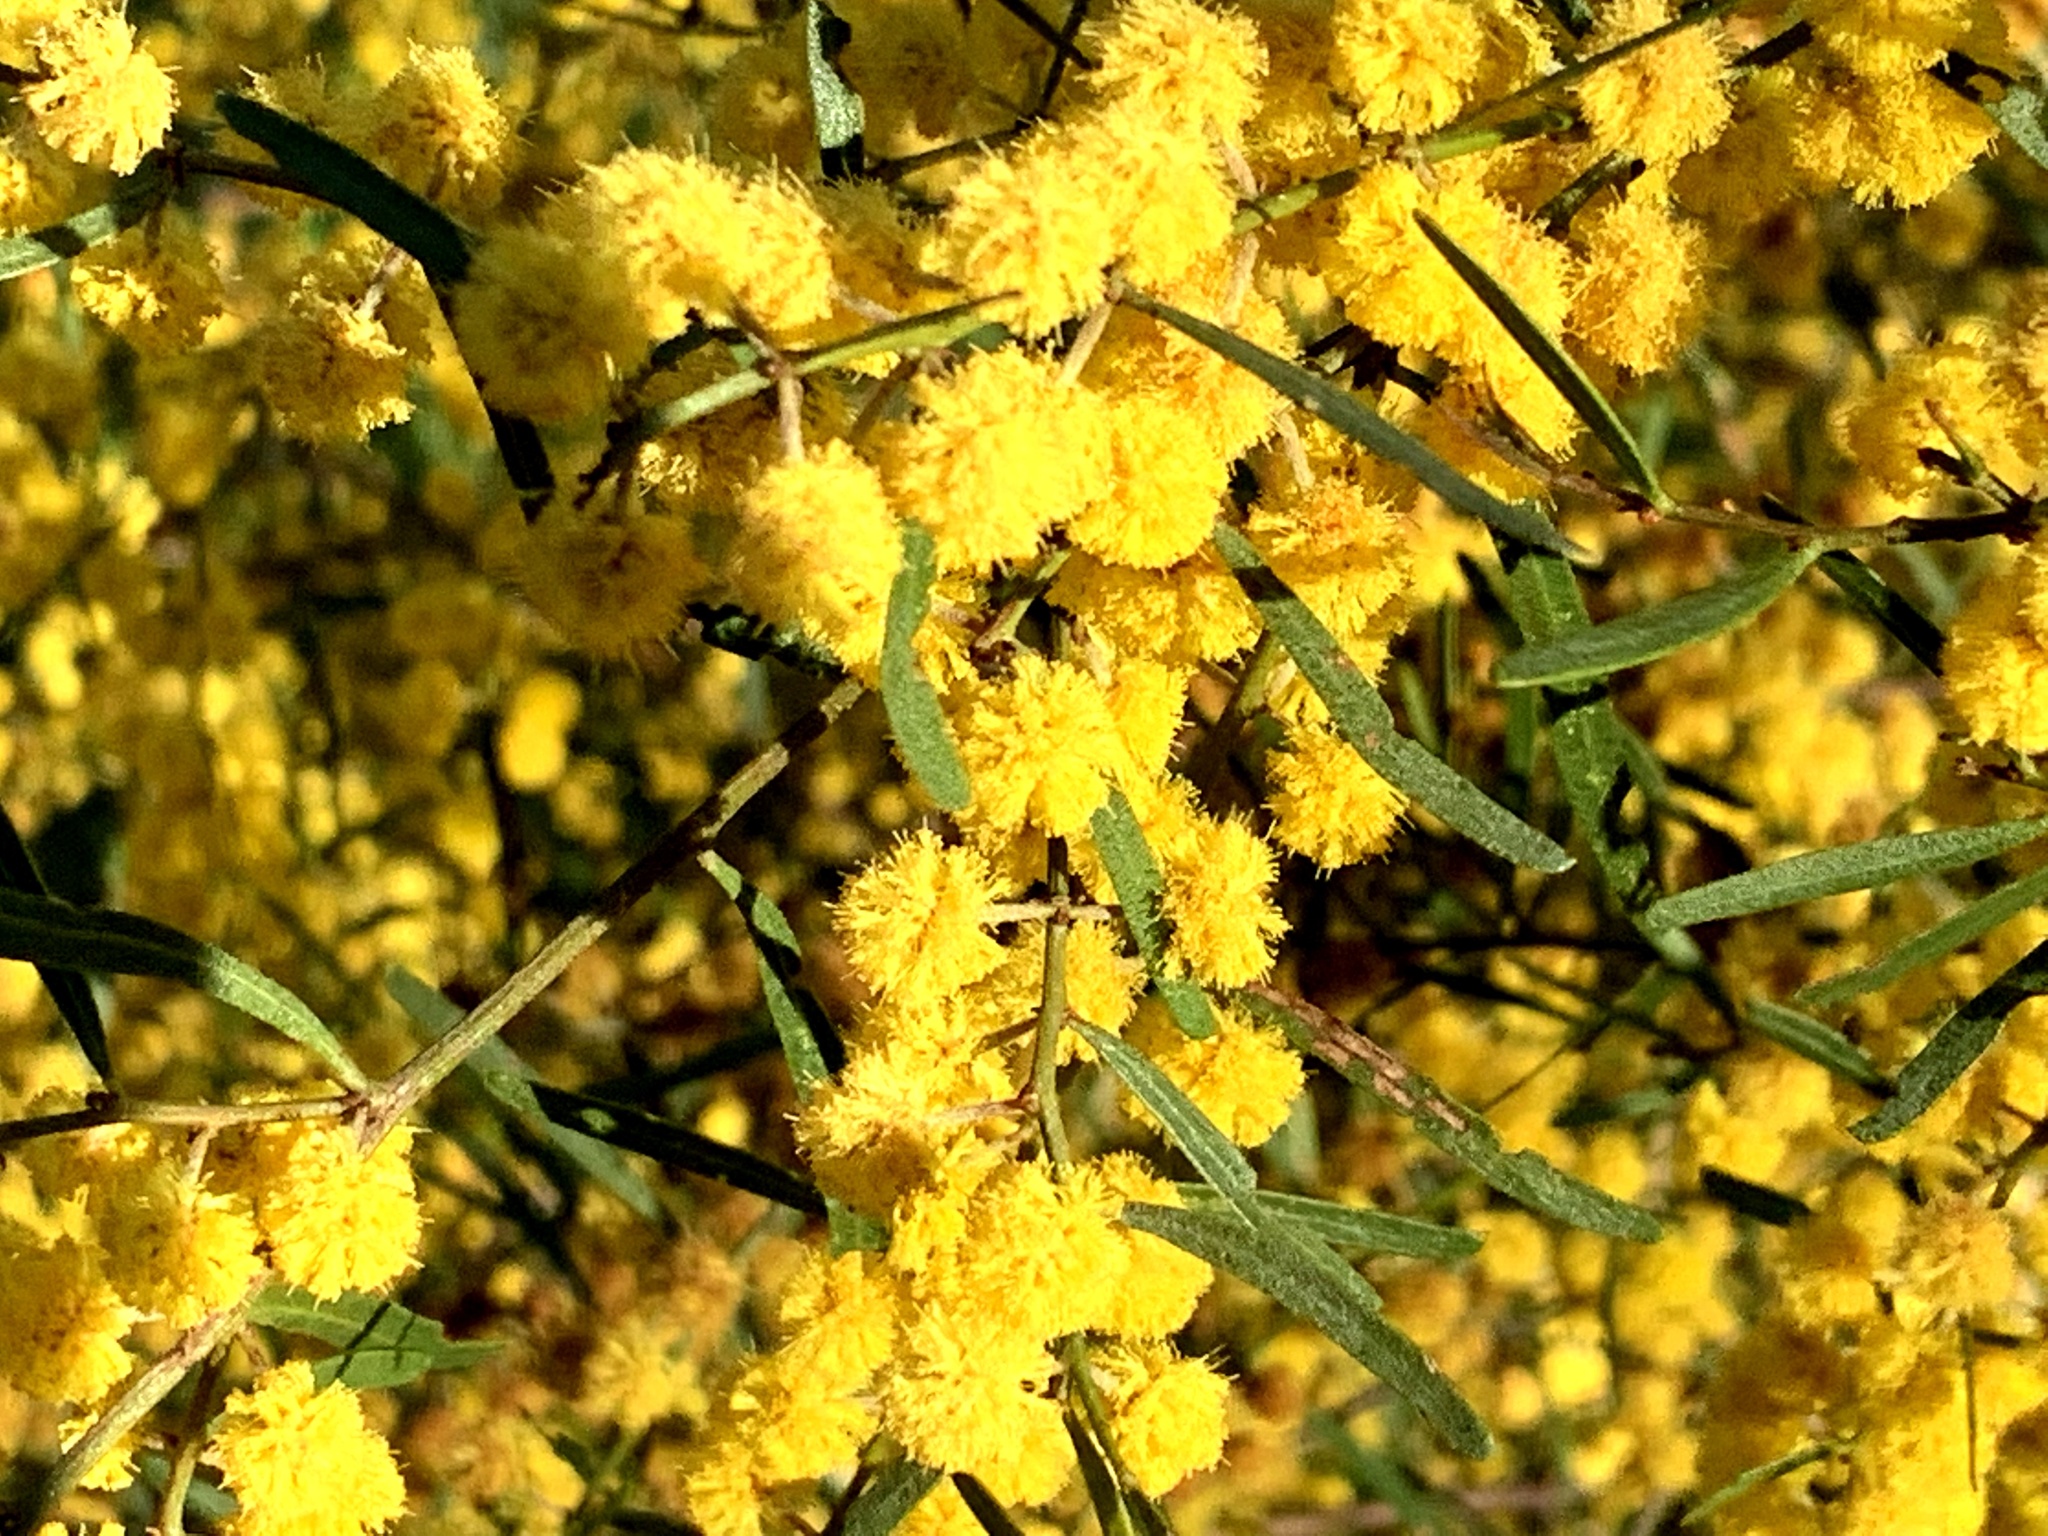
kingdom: Plantae
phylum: Tracheophyta
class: Magnoliopsida
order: Fabales
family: Fabaceae
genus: Acacia
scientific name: Acacia ausfeldii
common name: Ausfeld's wattle
